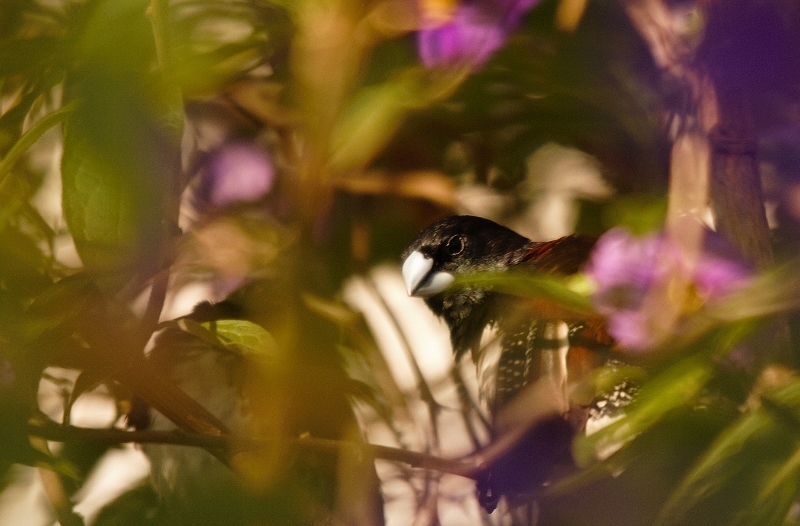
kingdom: Animalia
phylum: Chordata
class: Aves
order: Passeriformes
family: Estrildidae
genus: Lonchura
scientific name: Lonchura nigriceps
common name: Red-backed mannikin
